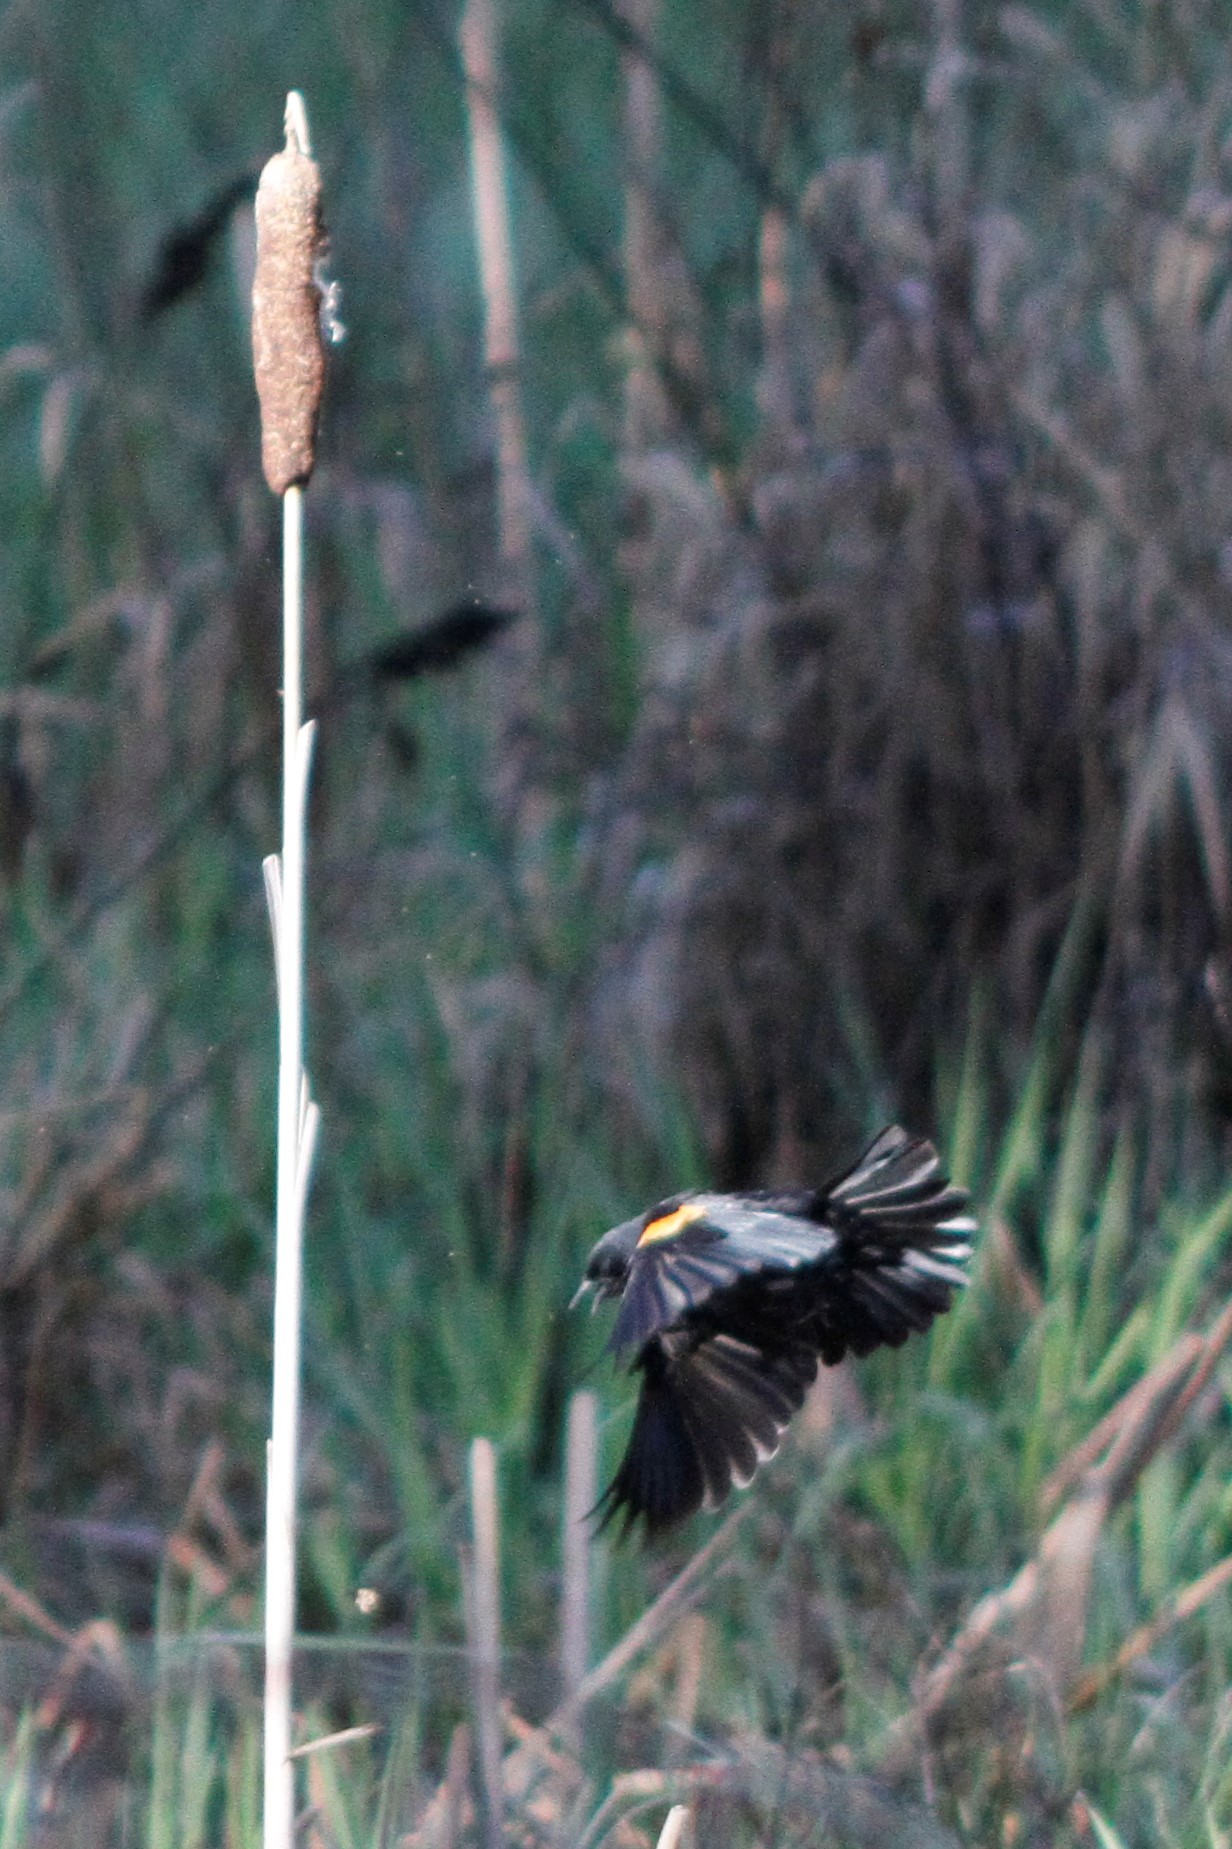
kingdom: Animalia
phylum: Chordata
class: Aves
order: Passeriformes
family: Icteridae
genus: Agelaius
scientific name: Agelaius phoeniceus
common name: Red-winged blackbird
